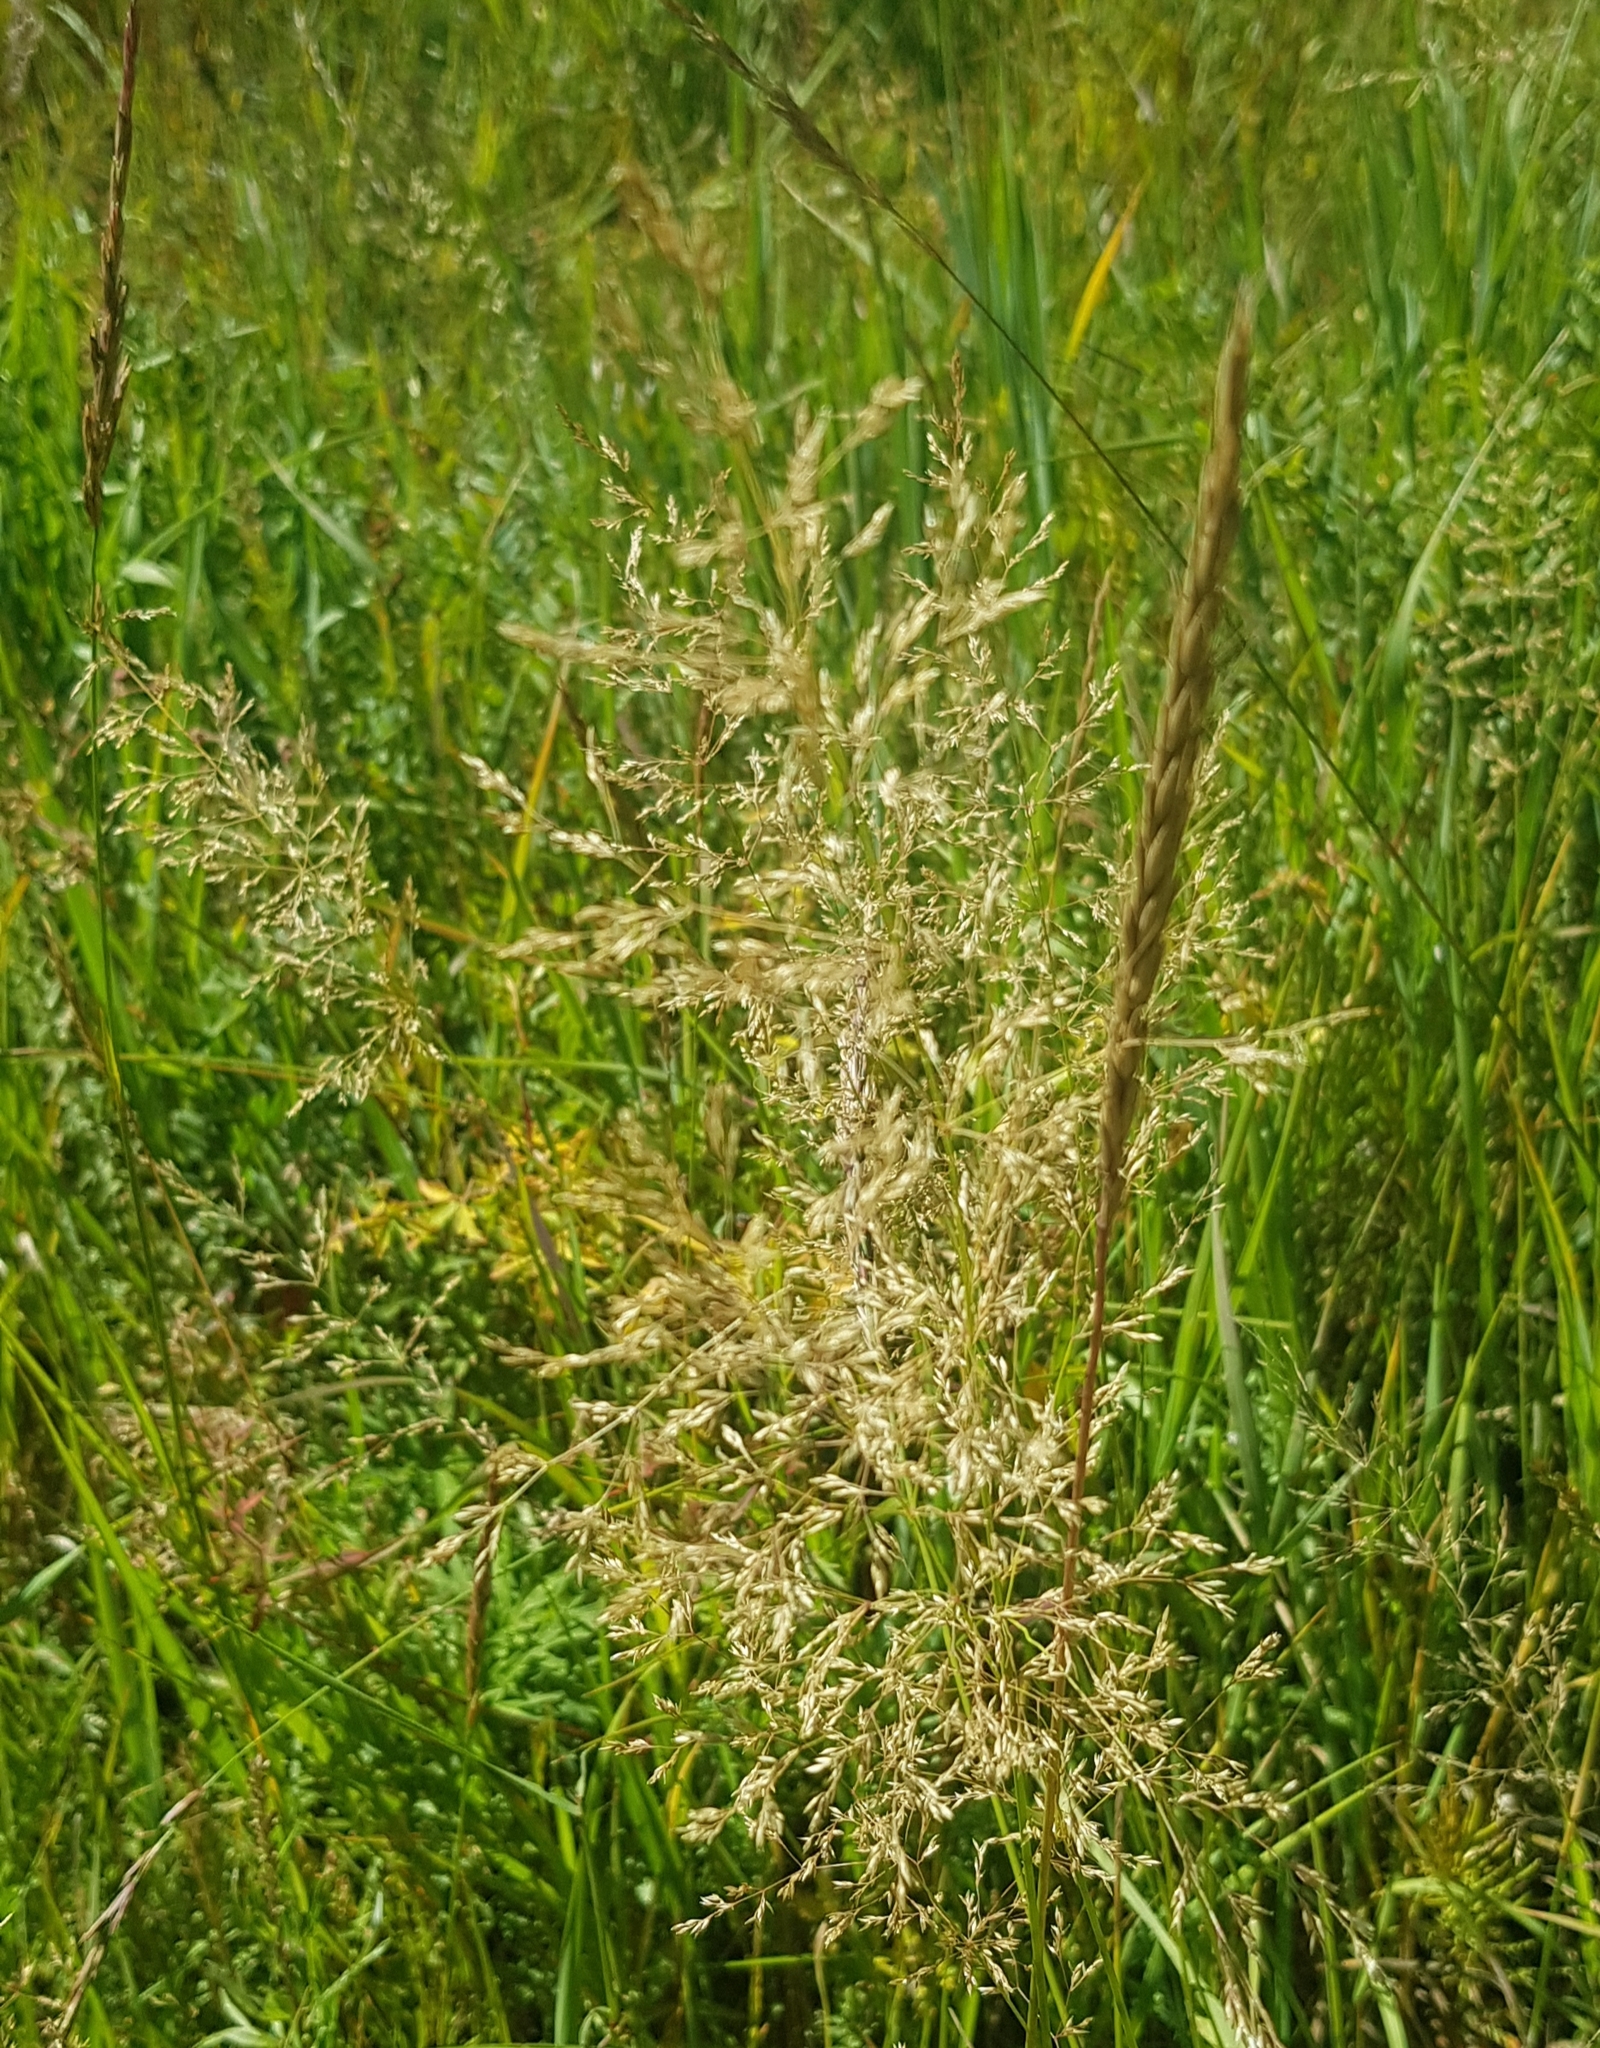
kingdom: Plantae
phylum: Tracheophyta
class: Liliopsida
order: Poales
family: Poaceae
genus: Elymus
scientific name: Elymus repens
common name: Quackgrass
